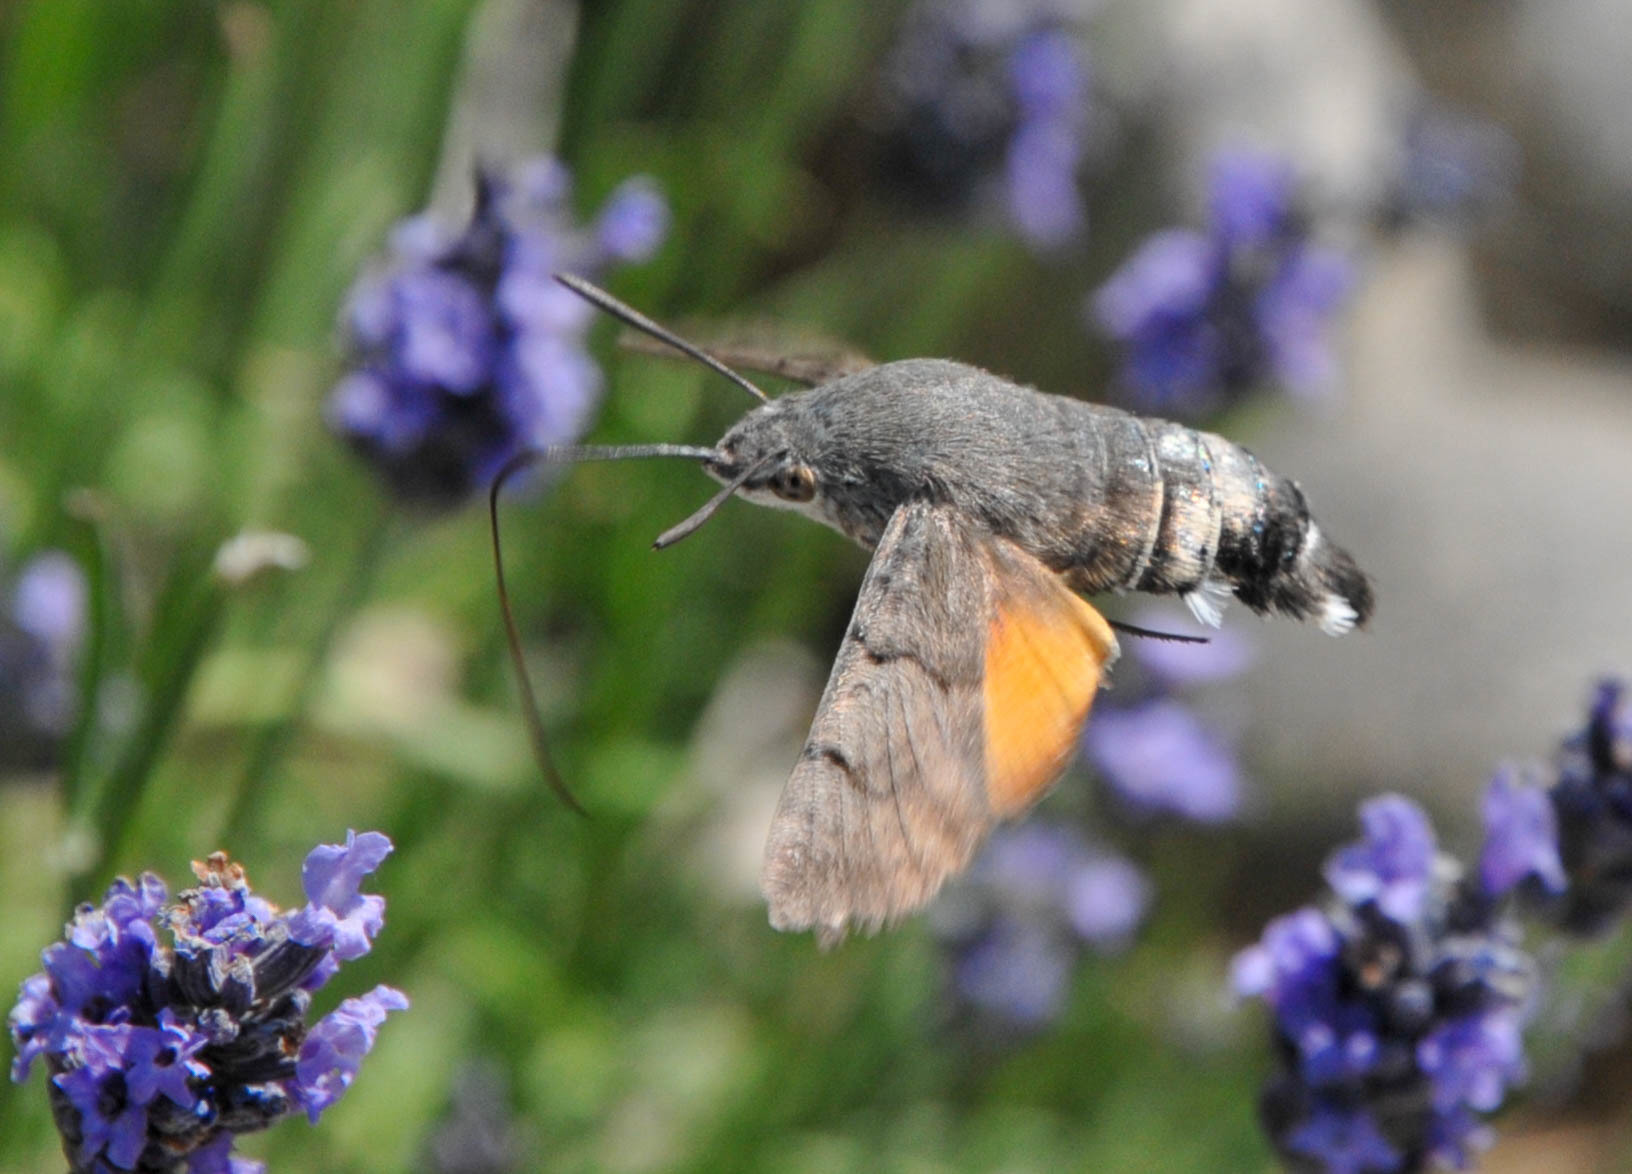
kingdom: Animalia
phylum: Arthropoda
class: Insecta
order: Lepidoptera
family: Sphingidae
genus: Macroglossum
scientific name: Macroglossum stellatarum
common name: Humming-bird hawk-moth
